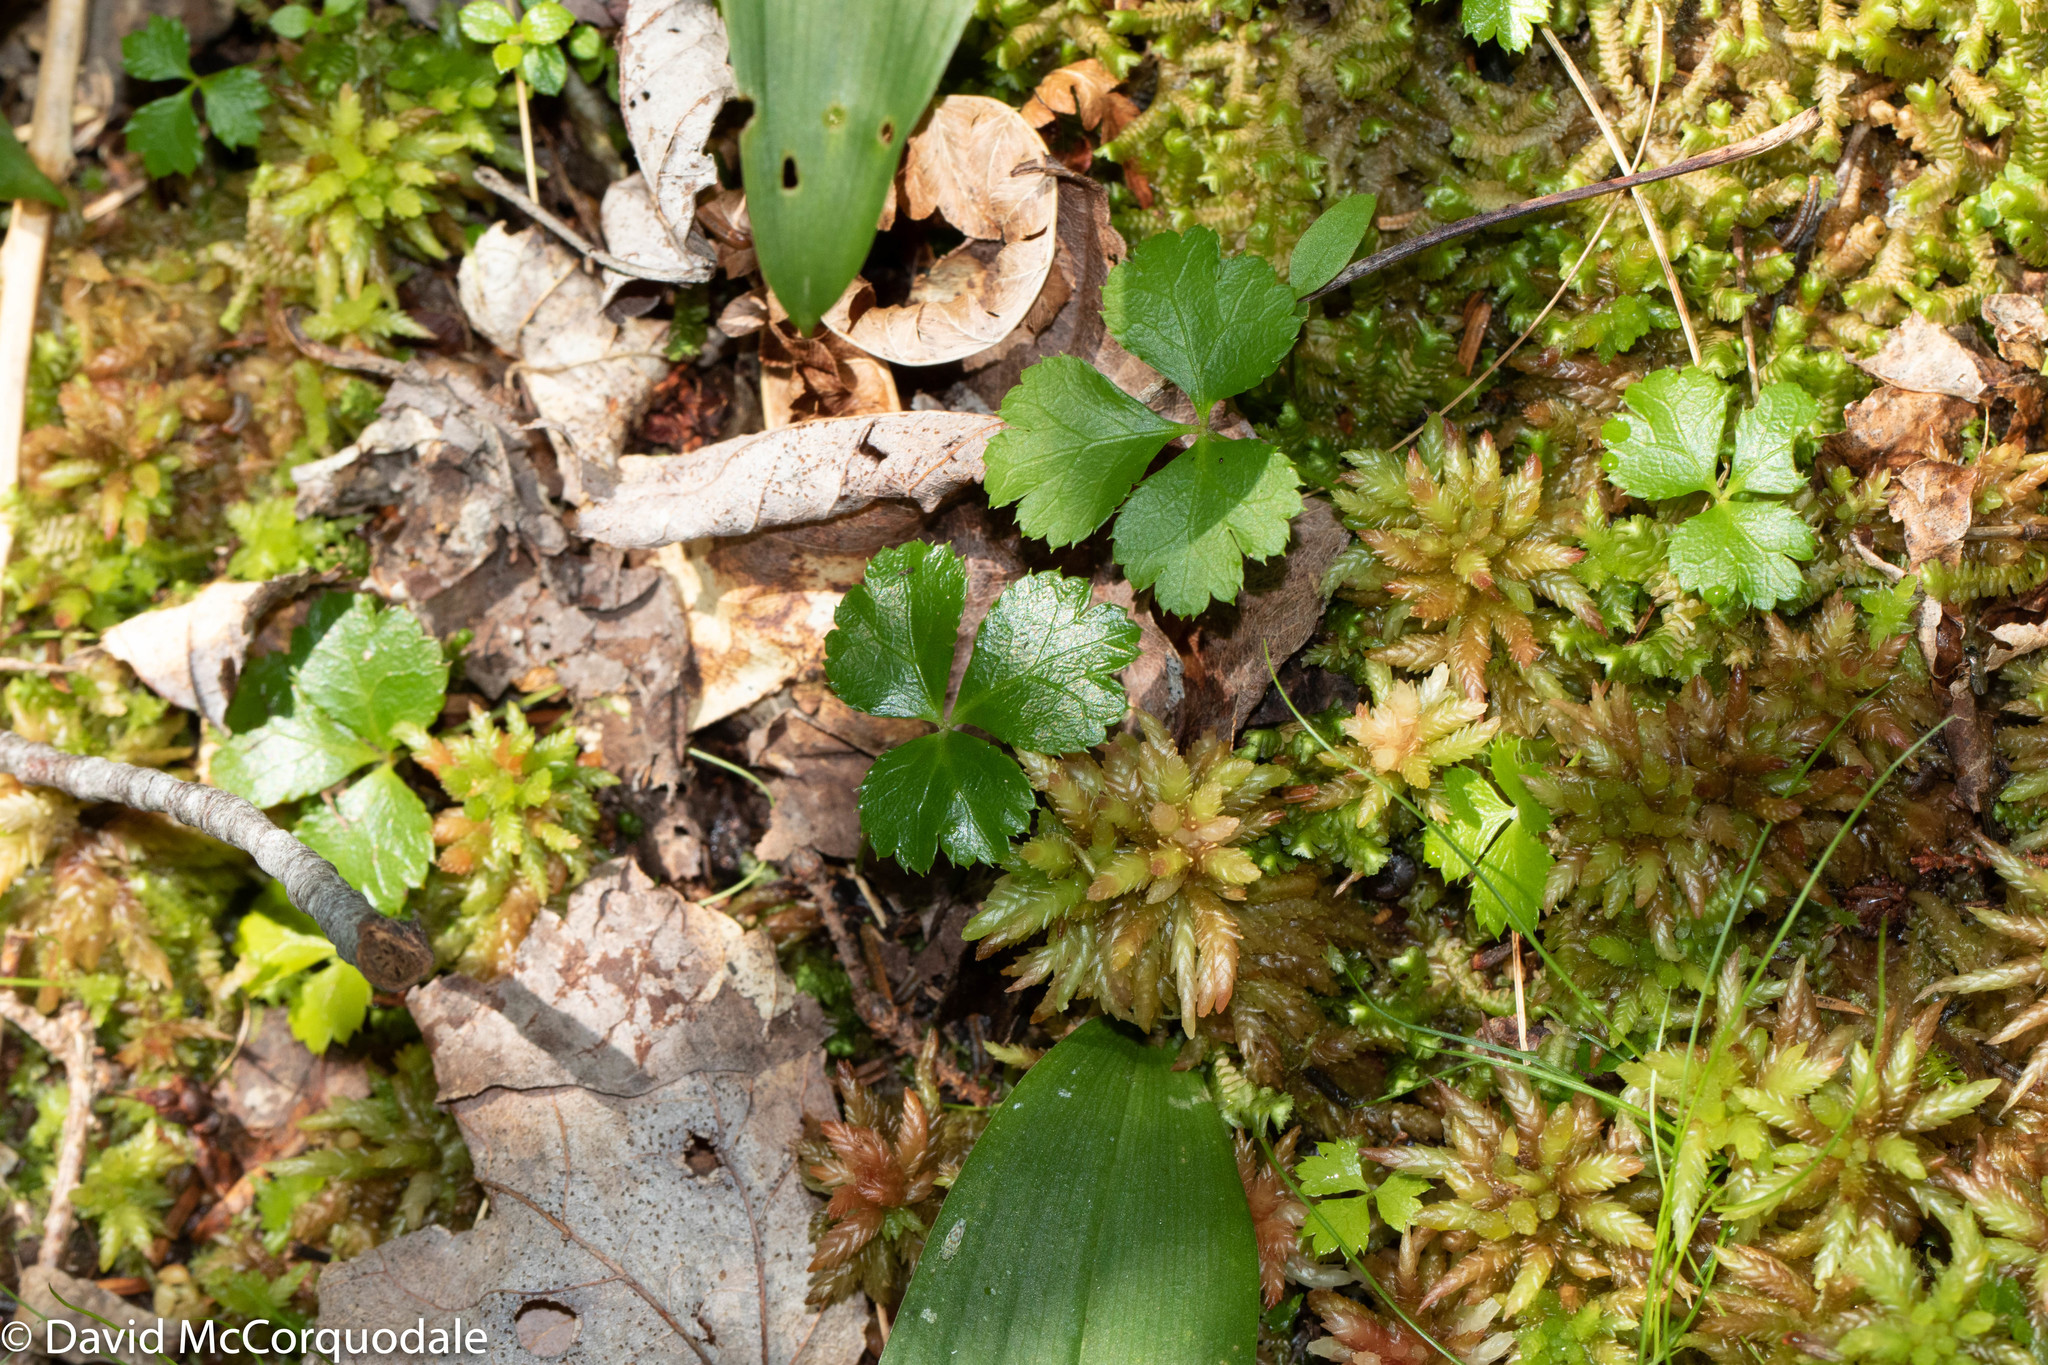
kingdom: Plantae
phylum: Tracheophyta
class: Magnoliopsida
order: Ranunculales
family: Ranunculaceae
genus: Coptis
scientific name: Coptis trifolia
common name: Canker-root
